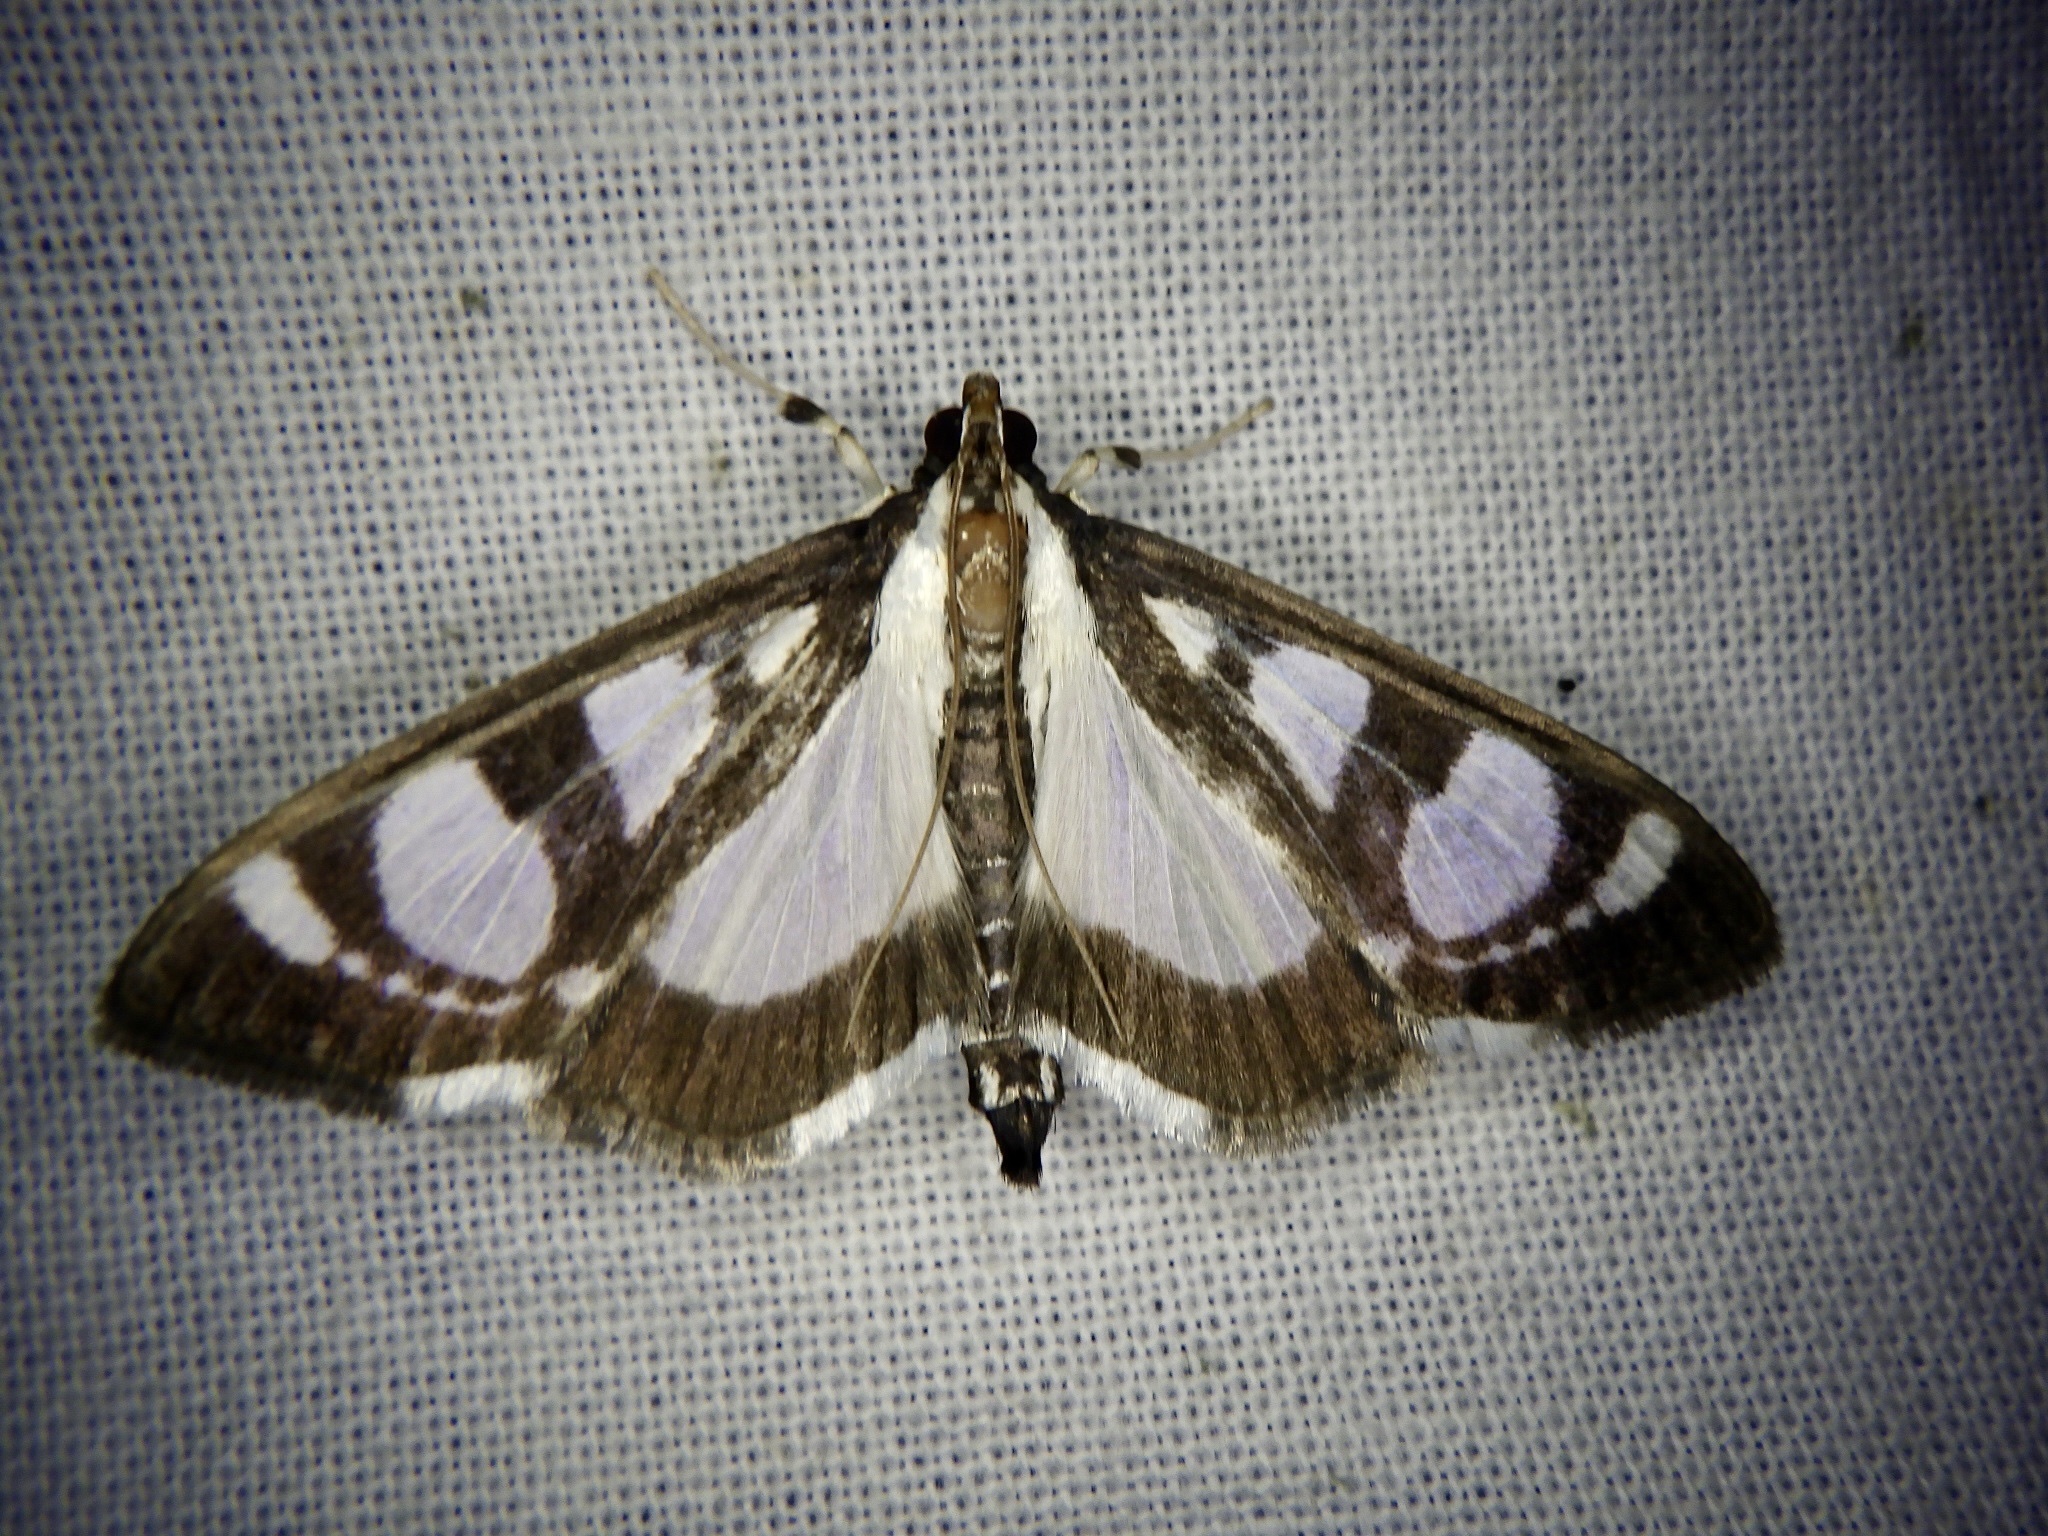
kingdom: Animalia
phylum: Arthropoda
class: Insecta
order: Lepidoptera
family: Crambidae
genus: Glyphodes
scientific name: Glyphodes quadrimaculalis
